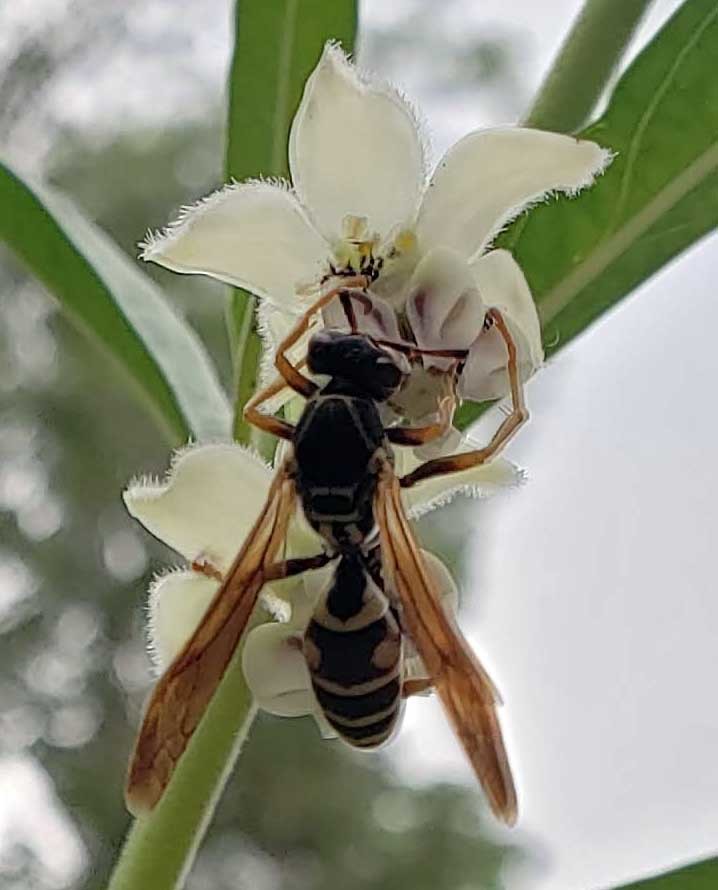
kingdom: Animalia
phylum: Arthropoda
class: Insecta
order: Hymenoptera
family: Eumenidae
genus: Polistes
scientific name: Polistes fuscatus
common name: Dark paper wasp
